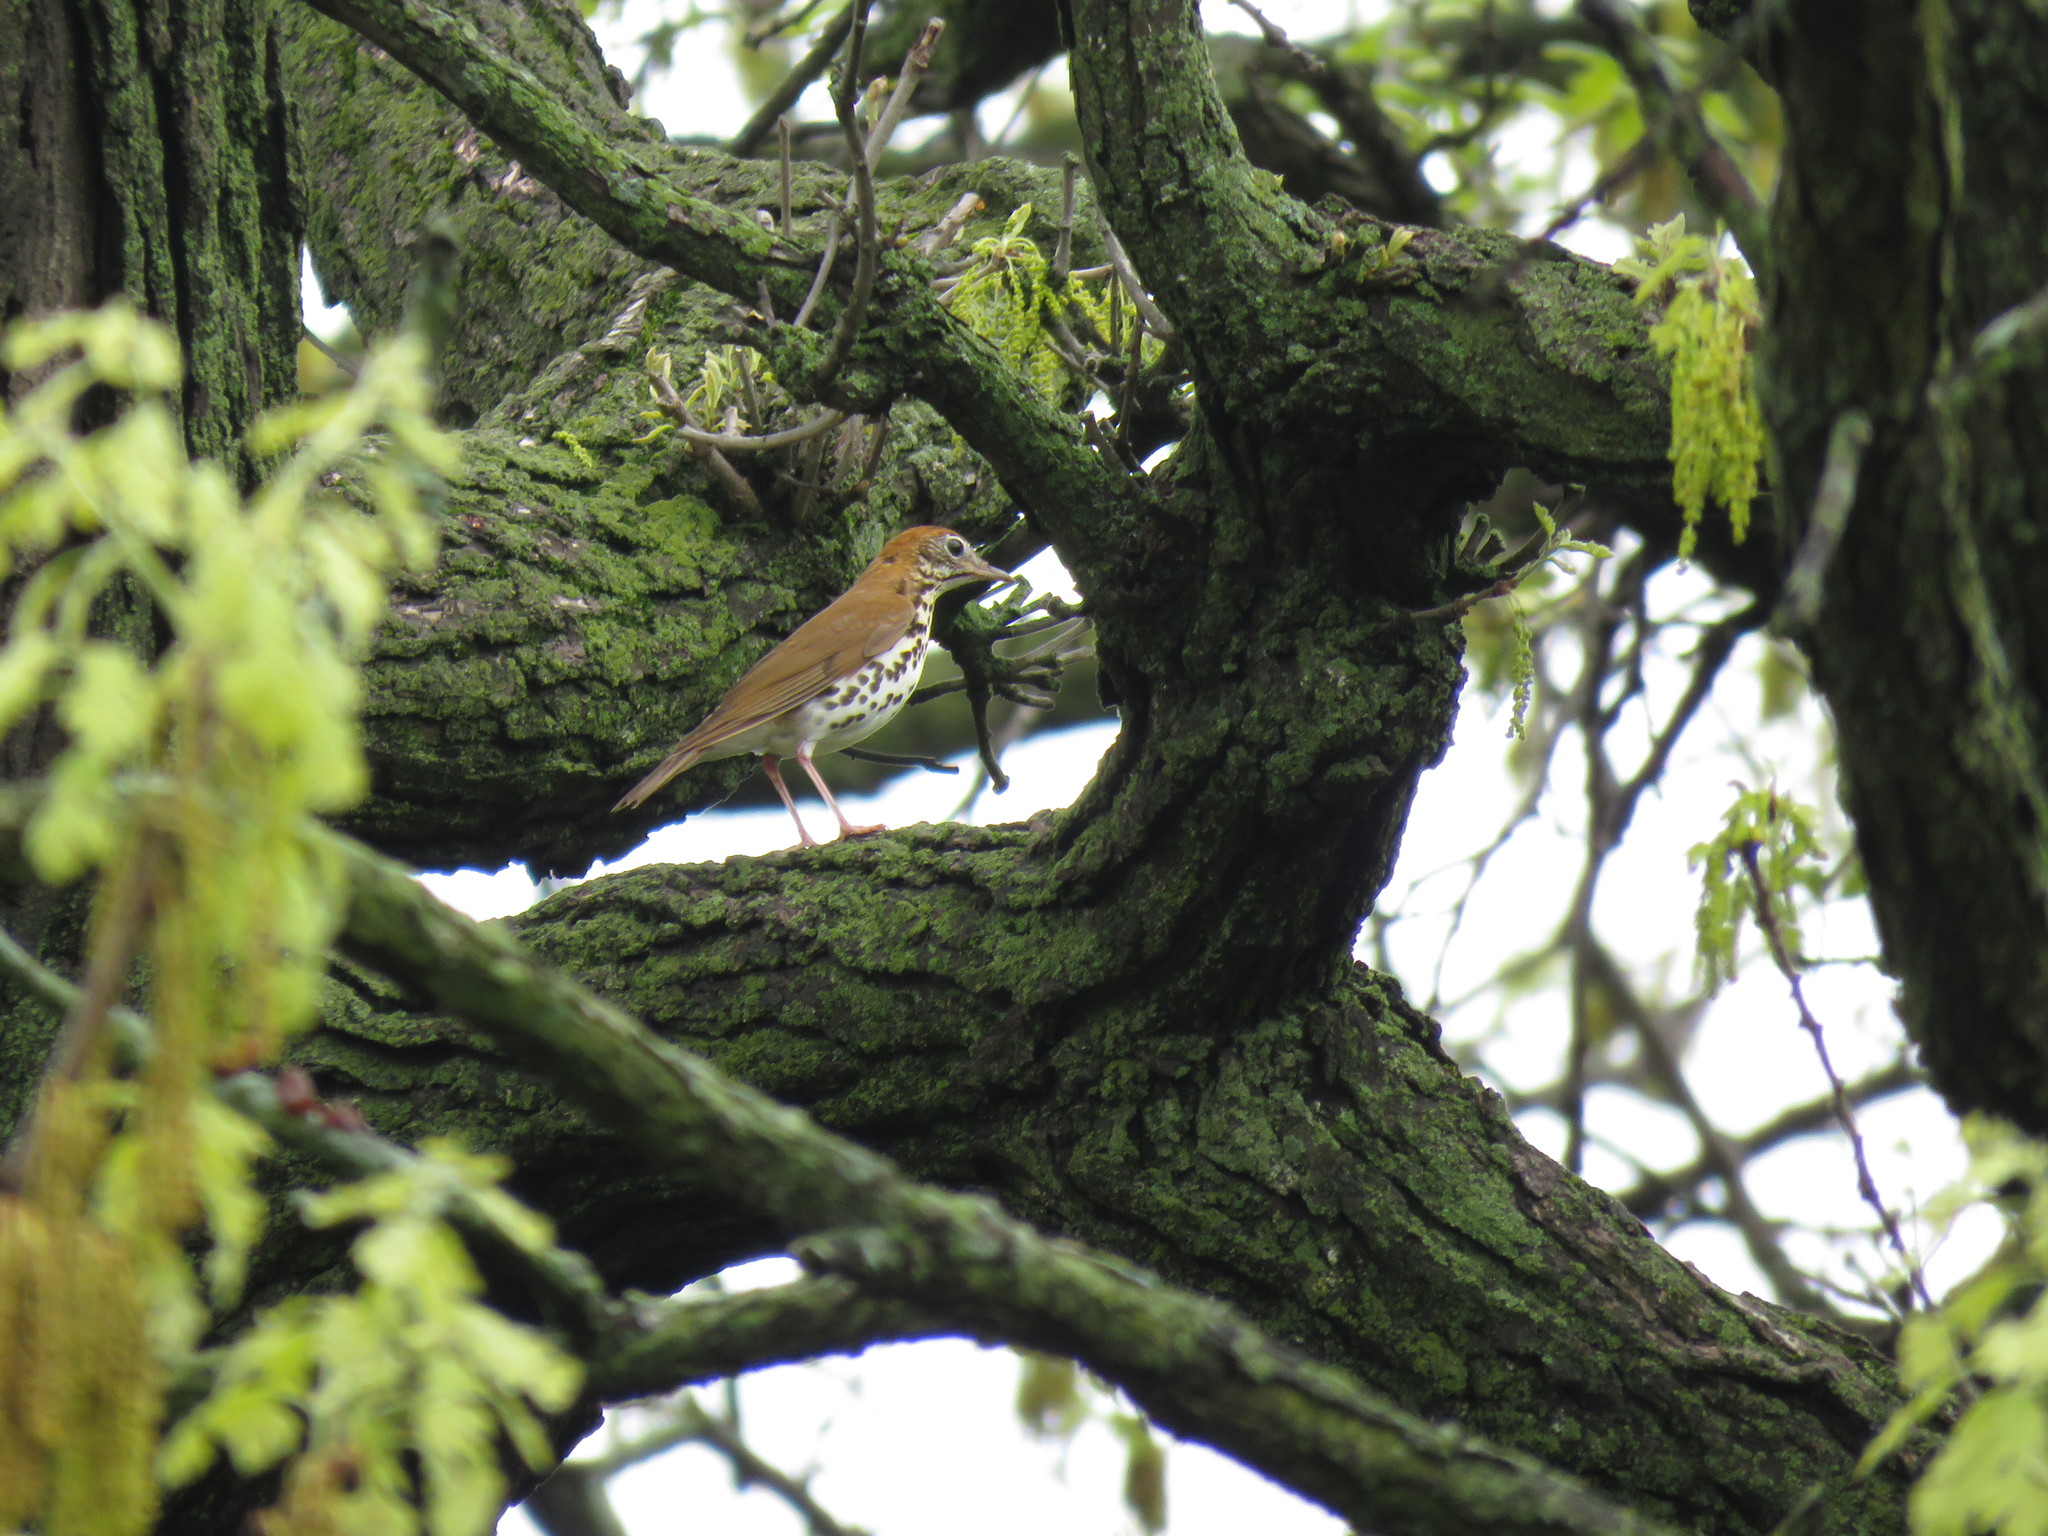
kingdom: Animalia
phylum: Chordata
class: Aves
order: Passeriformes
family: Turdidae
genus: Hylocichla
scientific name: Hylocichla mustelina
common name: Wood thrush
